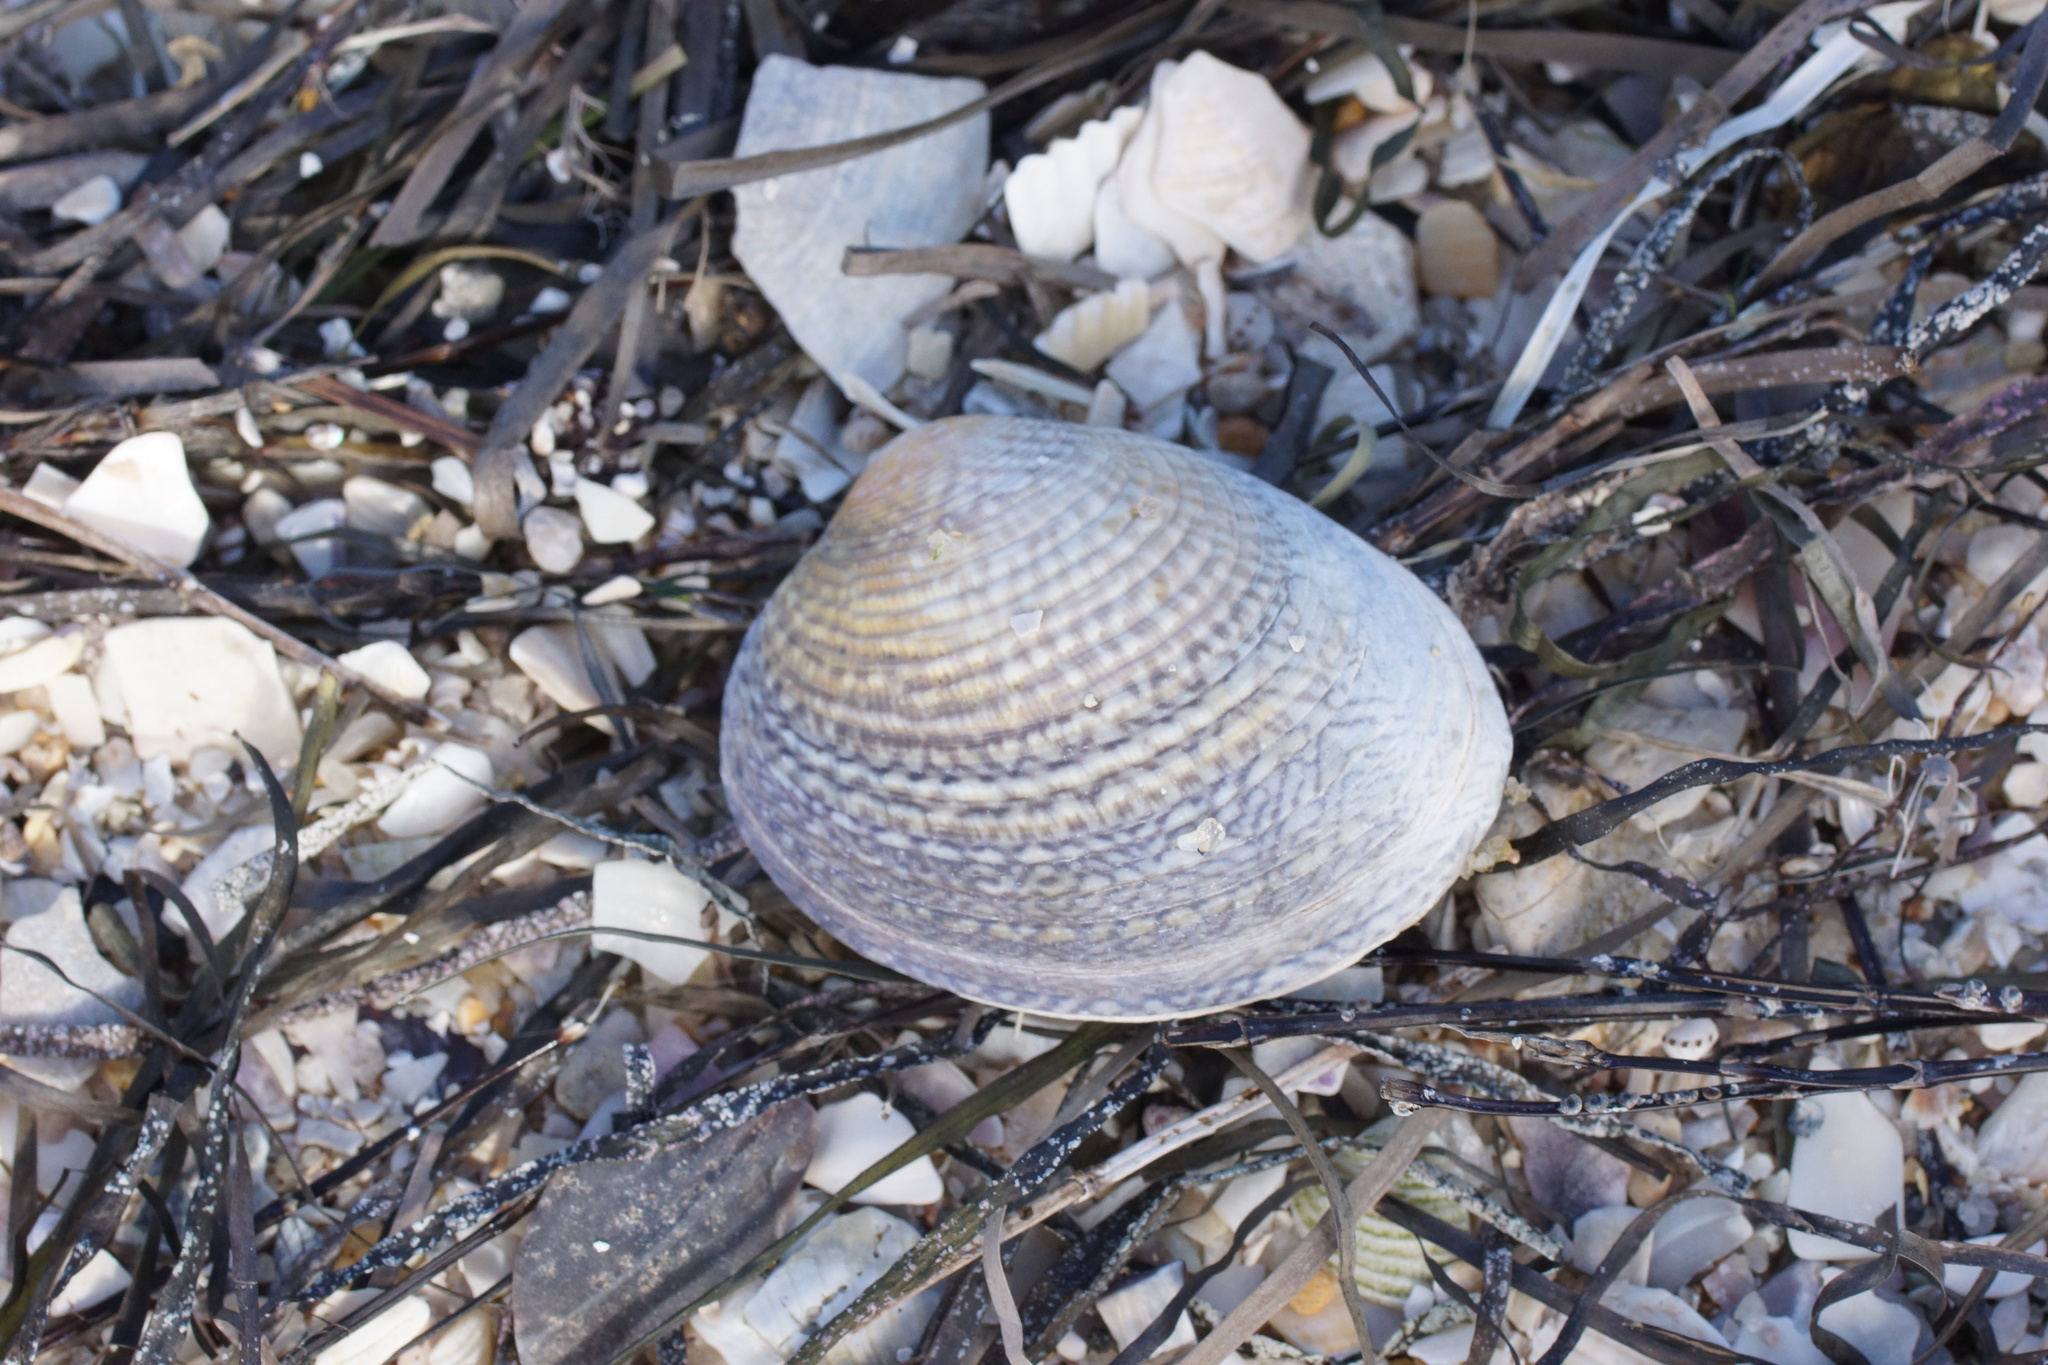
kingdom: Animalia
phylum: Mollusca
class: Bivalvia
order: Venerida
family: Veneridae
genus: Katelysia
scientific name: Katelysia rhytiphora
